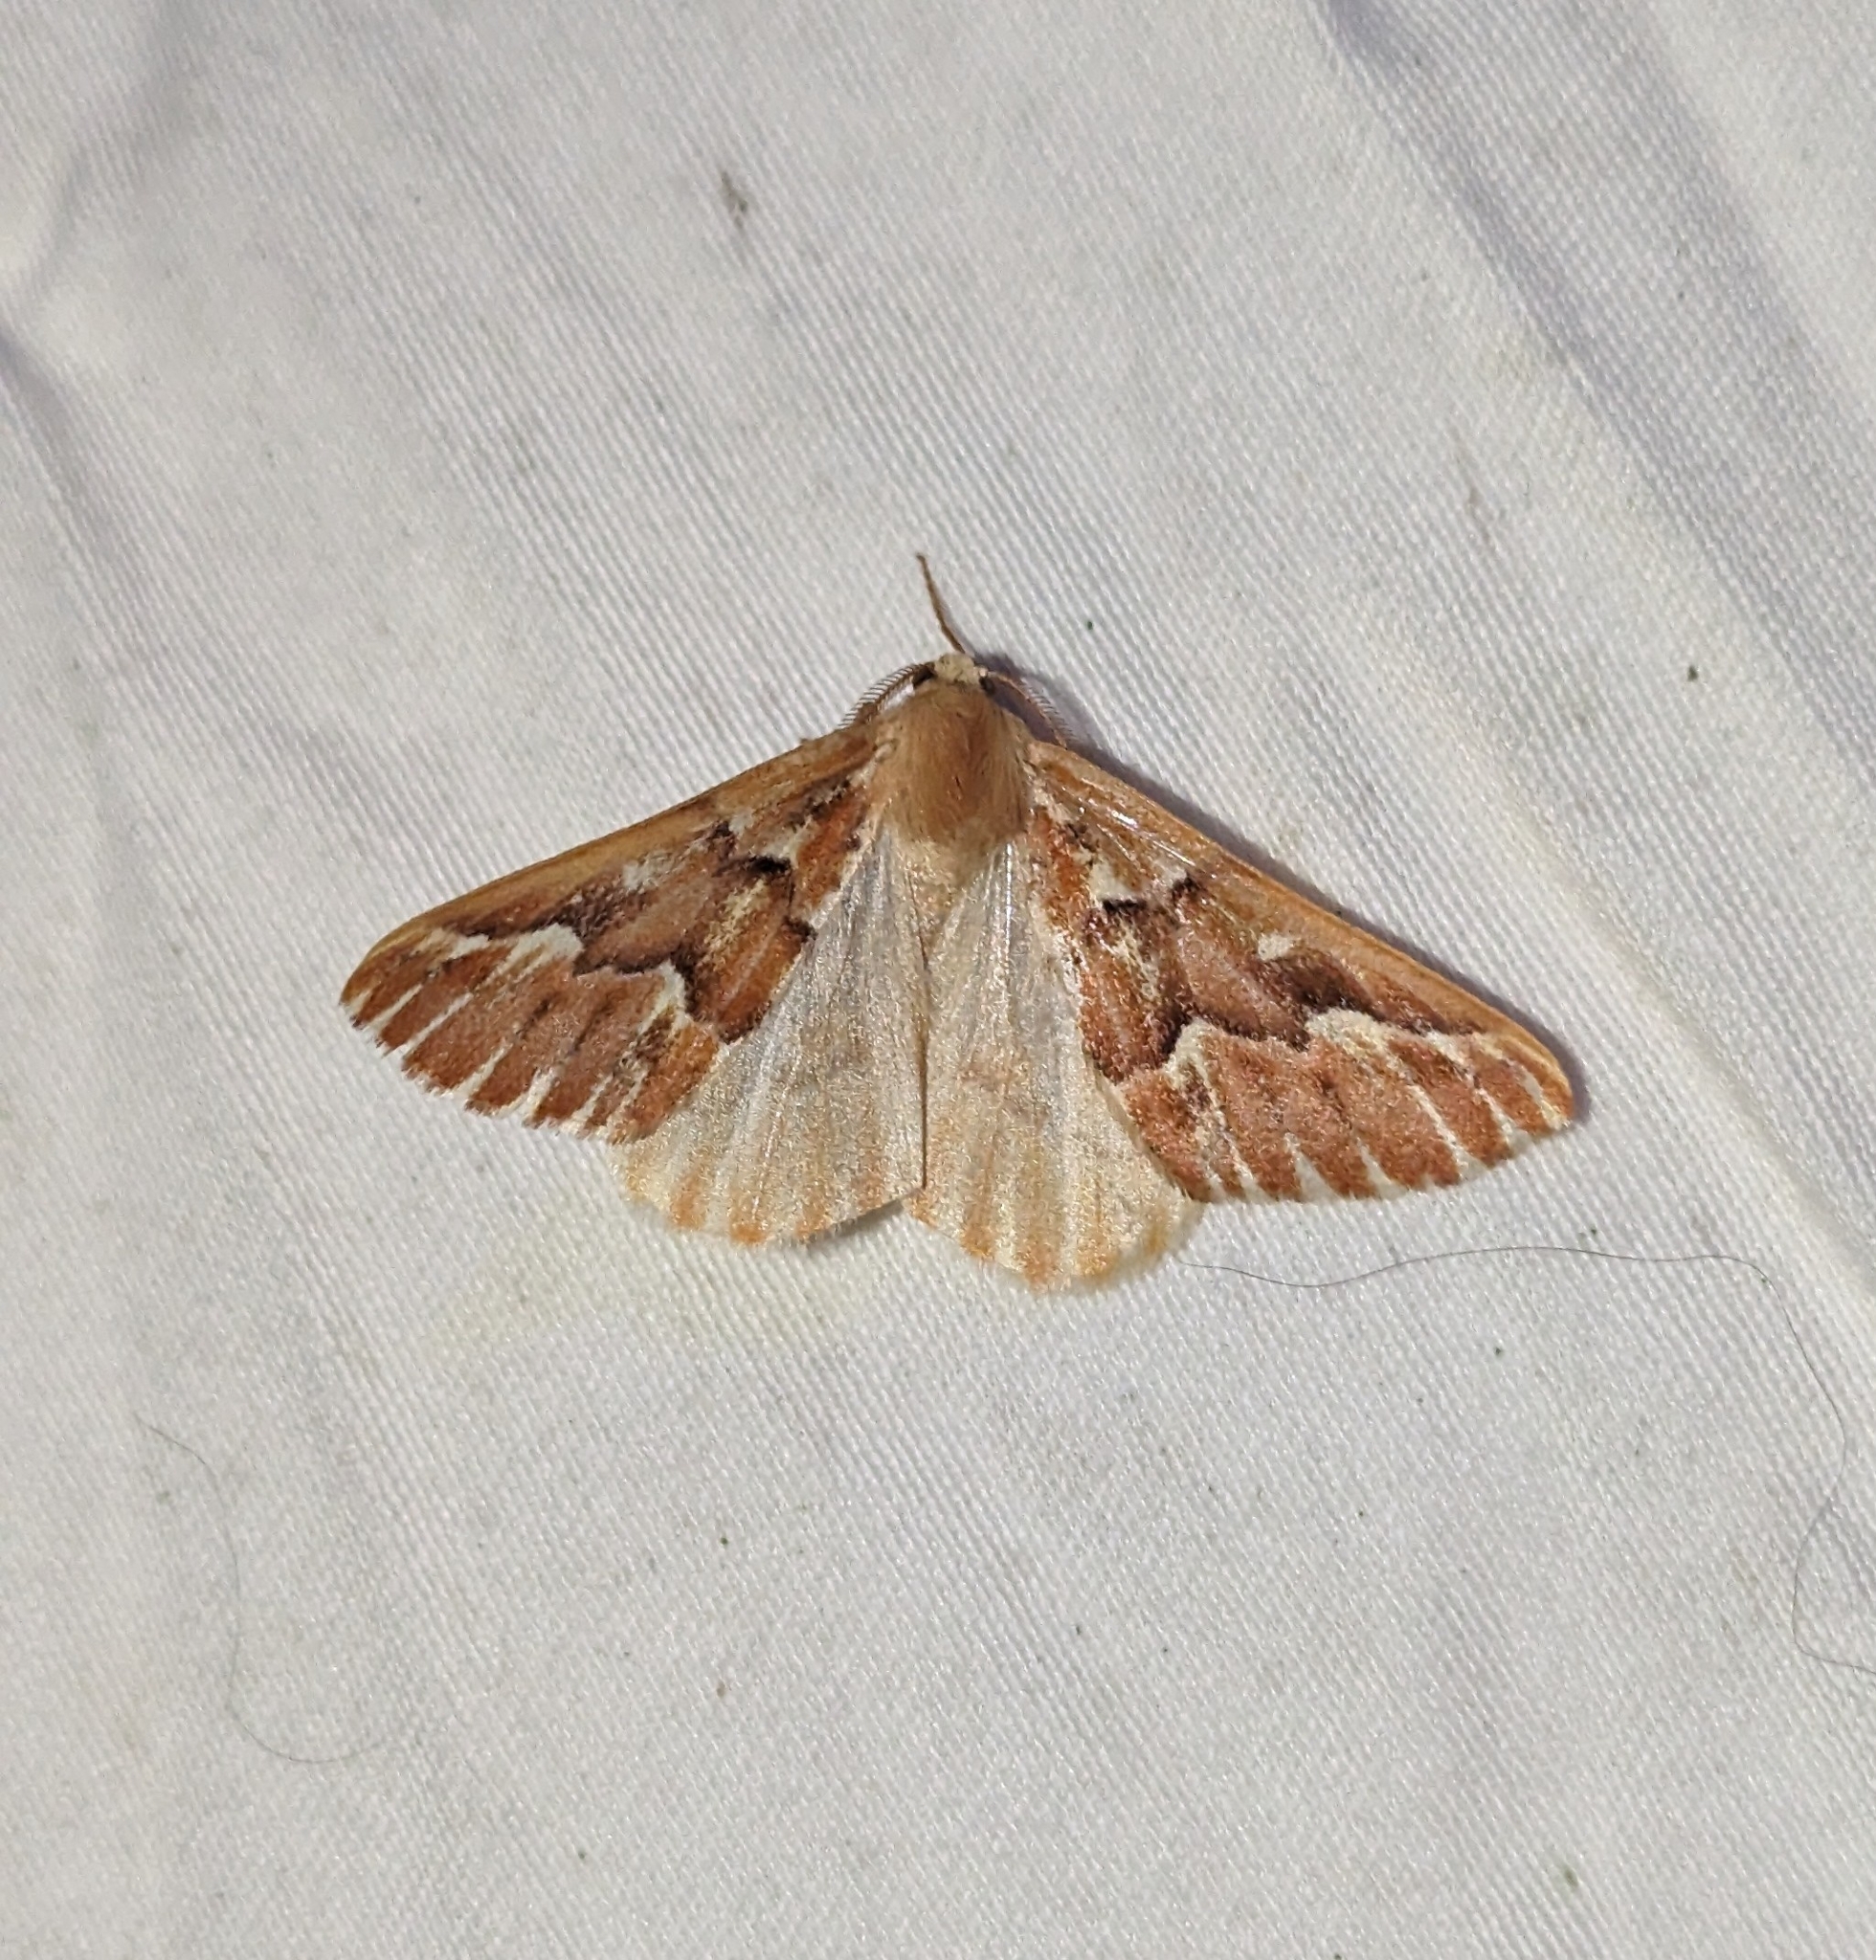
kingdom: Animalia
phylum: Arthropoda
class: Insecta
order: Lepidoptera
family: Geometridae
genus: Caripeta
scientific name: Caripeta aequaliaria
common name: Red girdle moth
